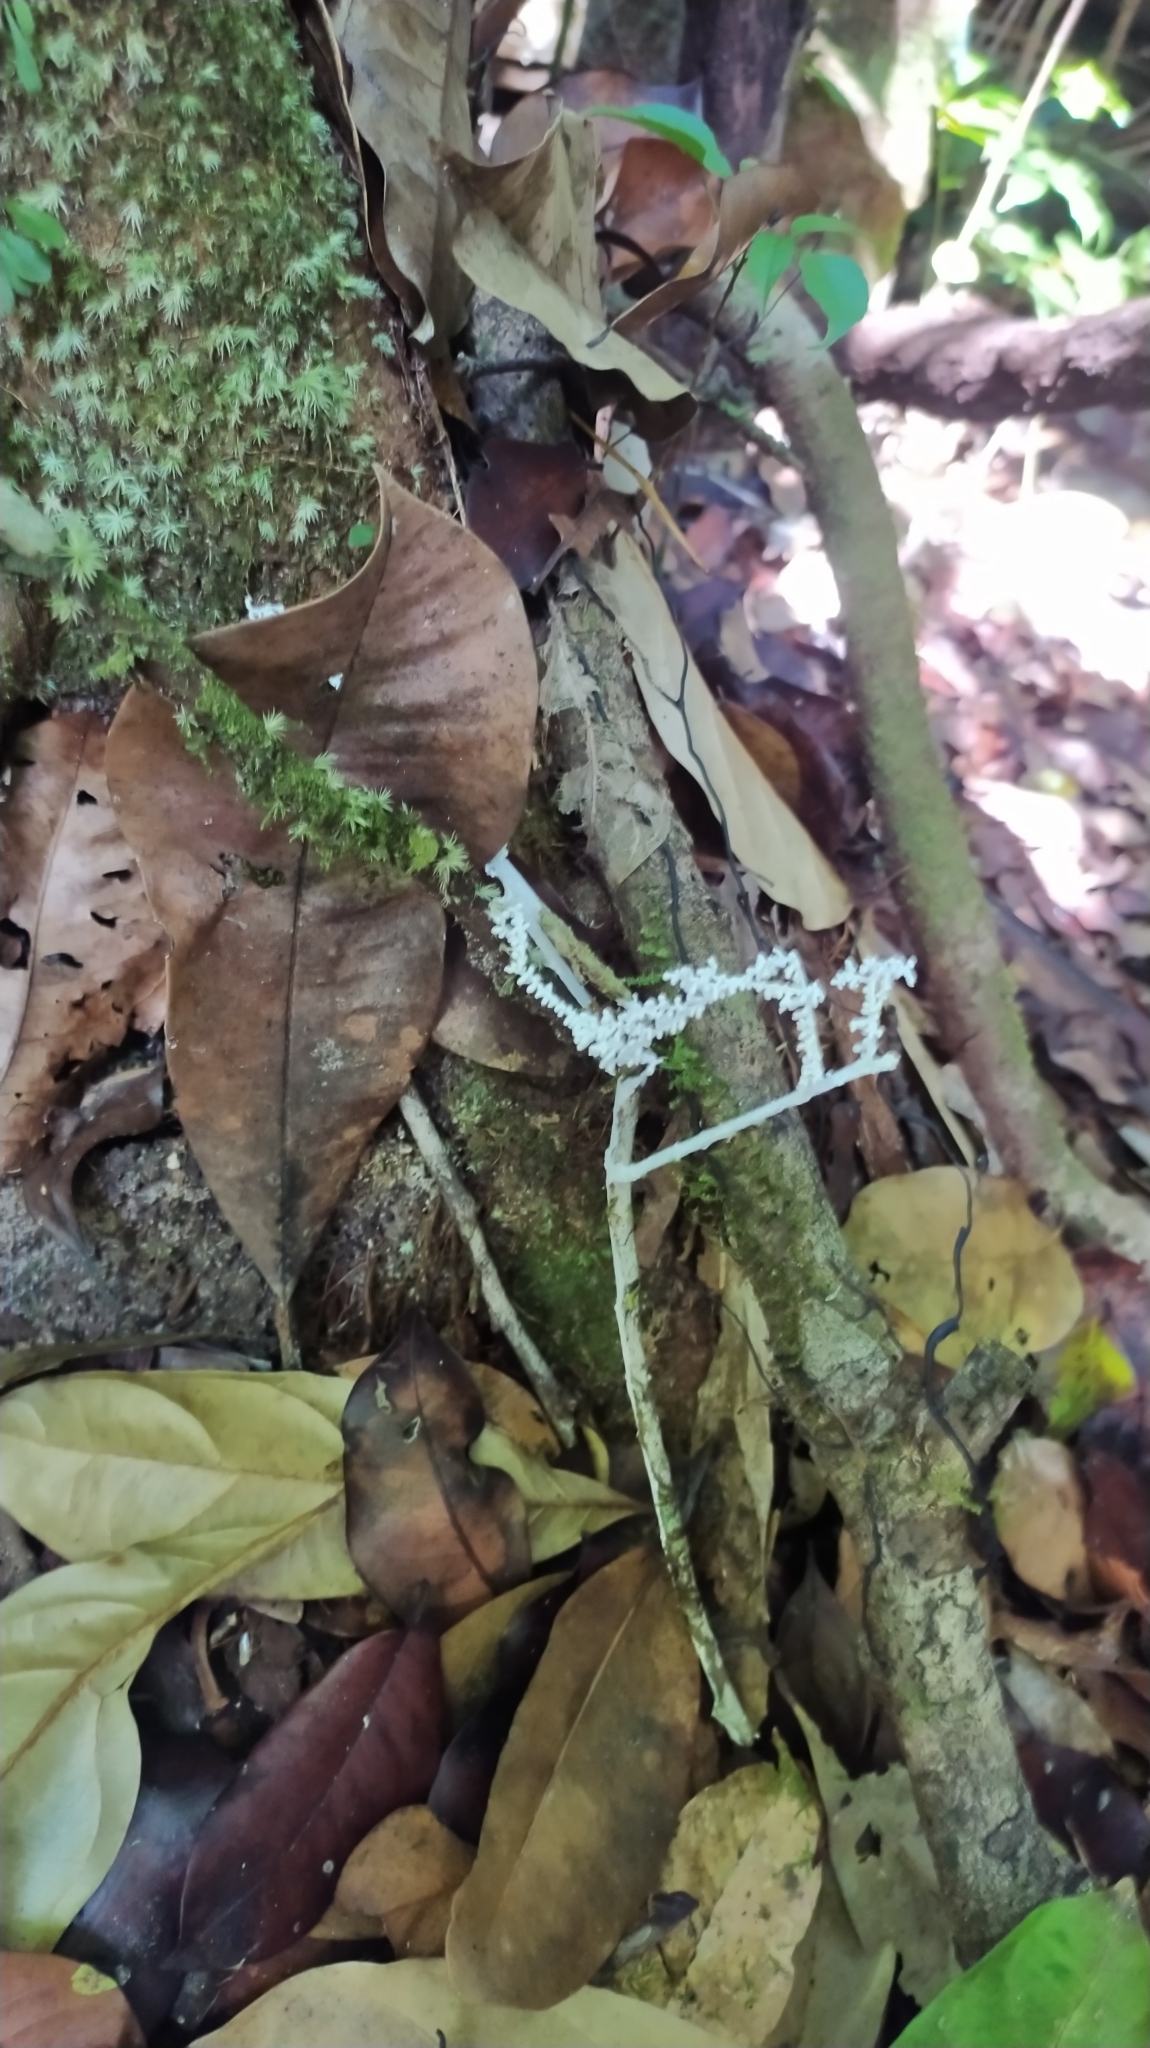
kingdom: Fungi
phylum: Basidiomycota
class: Agaricomycetes
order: Agaricales
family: Marasmiaceae
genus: Brunneocorticium
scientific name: Brunneocorticium corynecarpon
